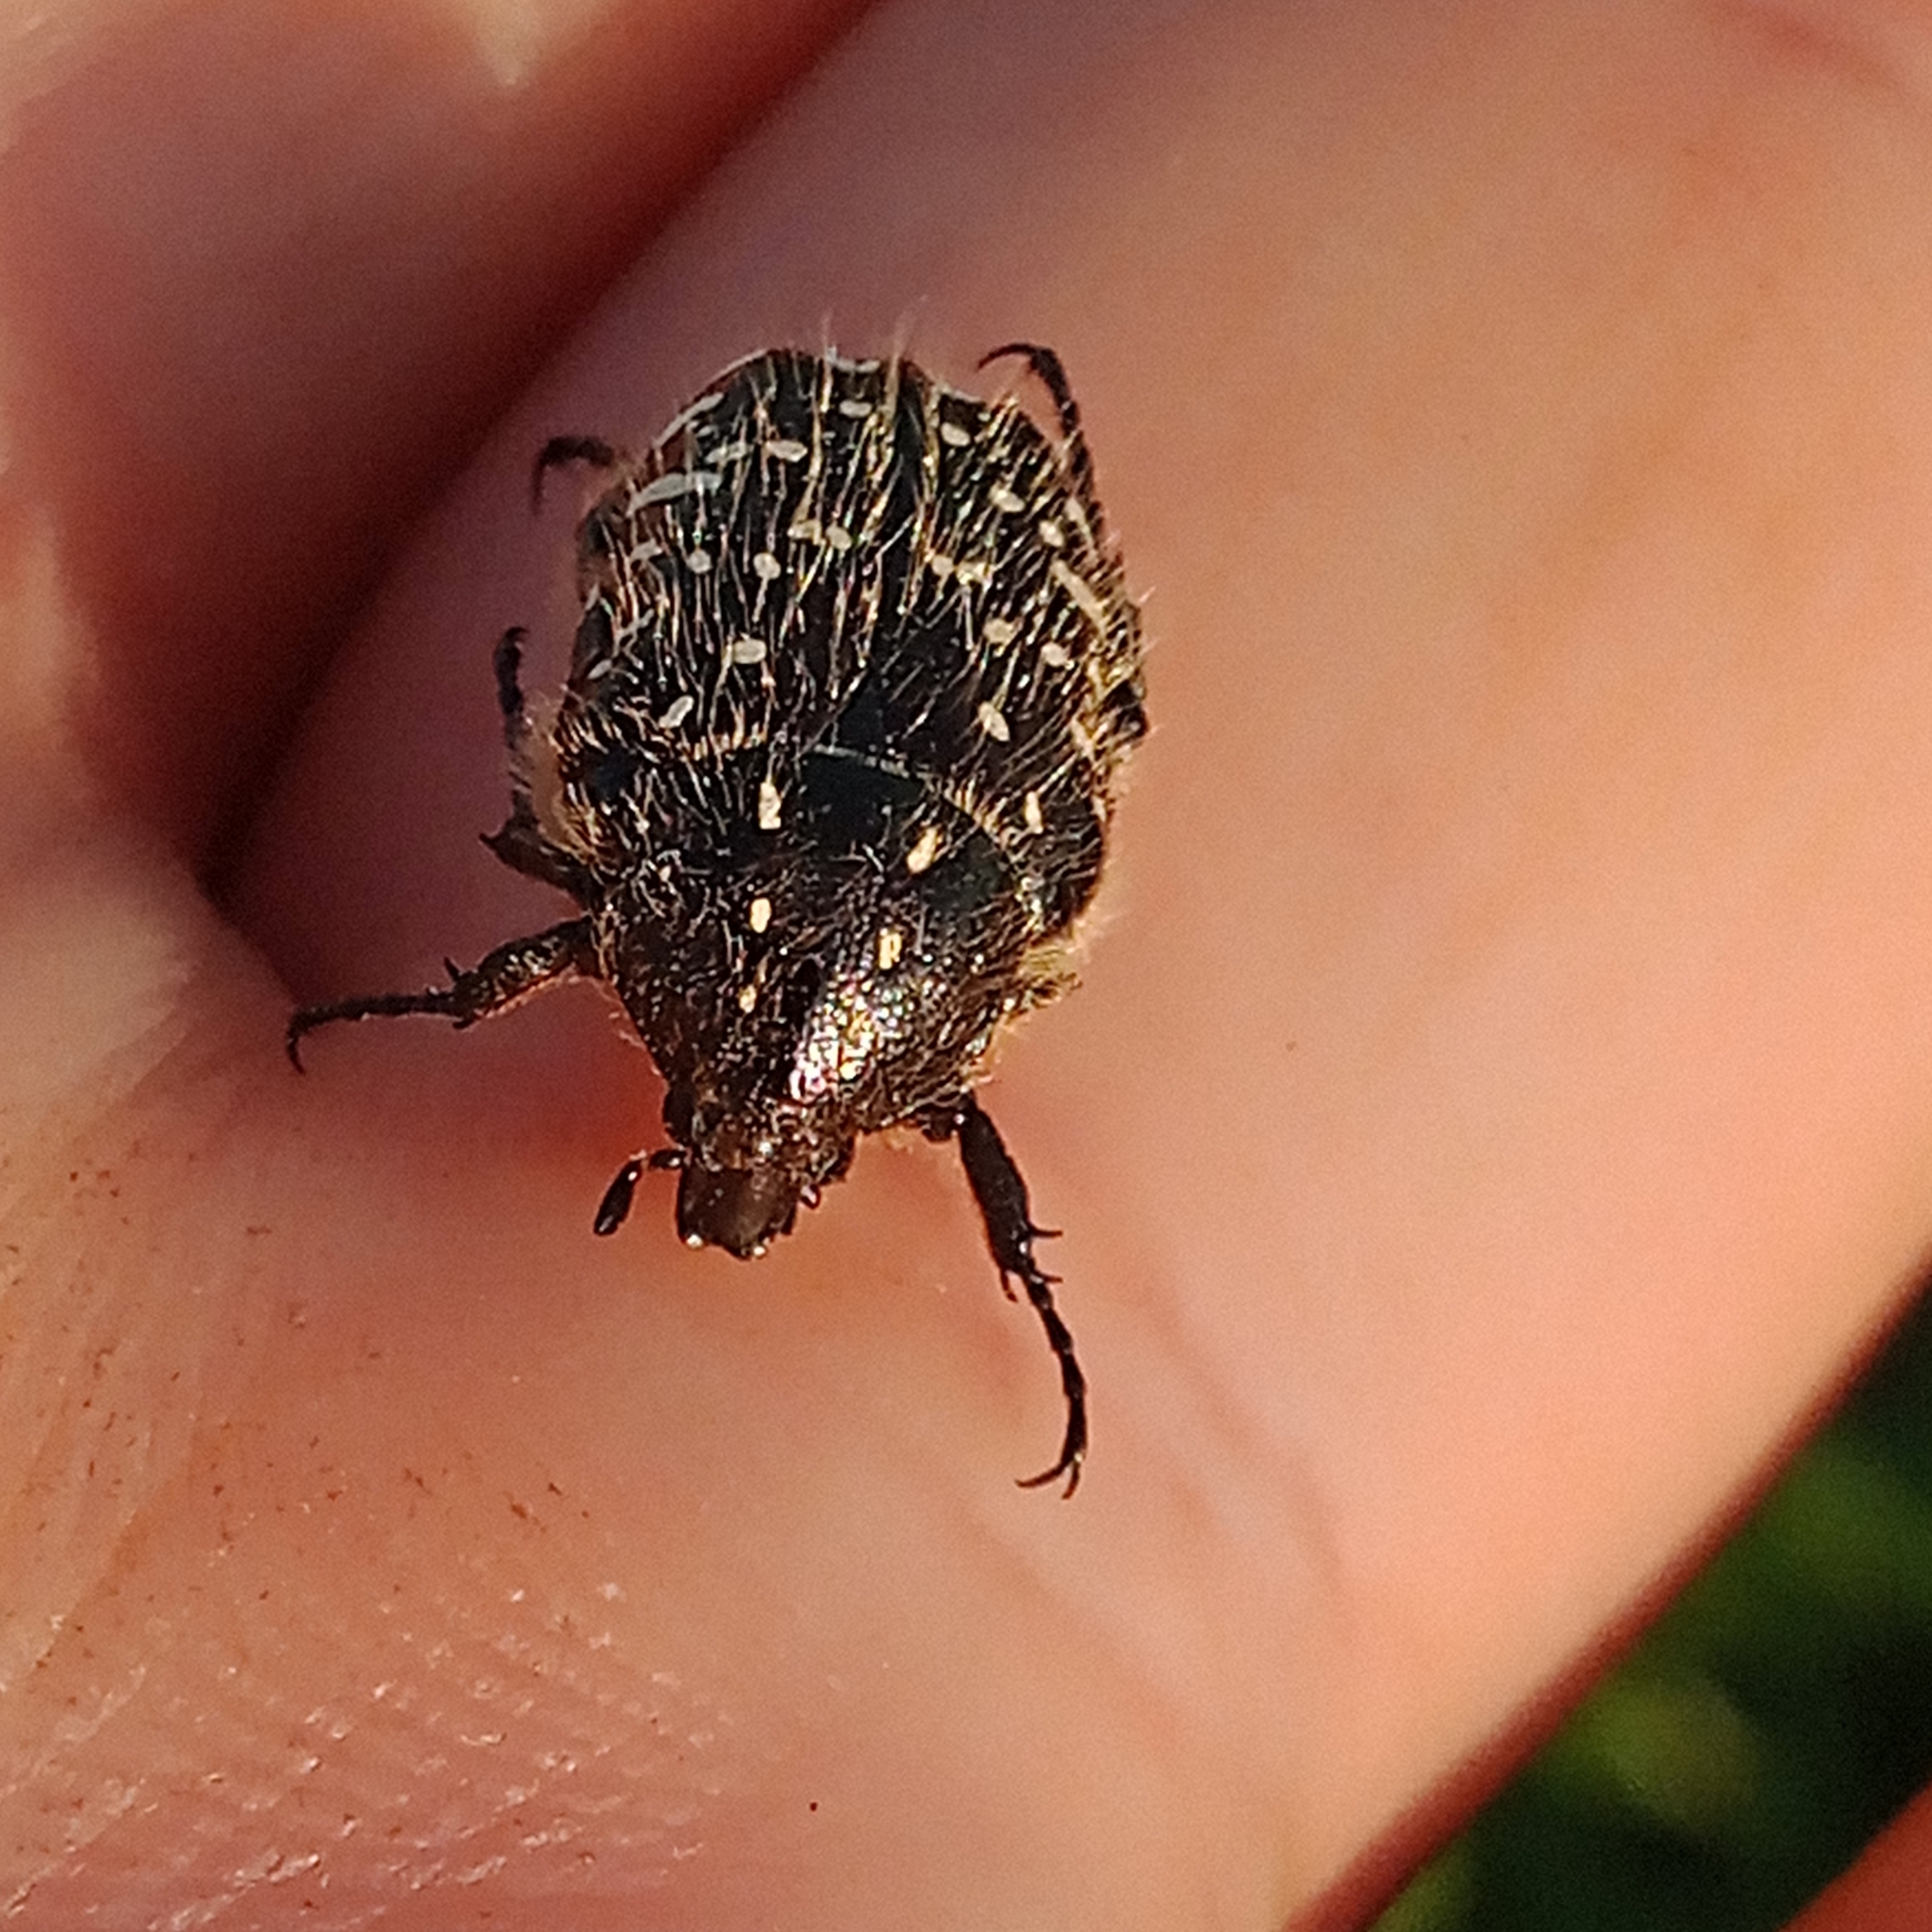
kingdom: Animalia
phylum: Arthropoda
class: Insecta
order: Coleoptera
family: Scarabaeidae
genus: Oxythyrea
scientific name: Oxythyrea funesta
